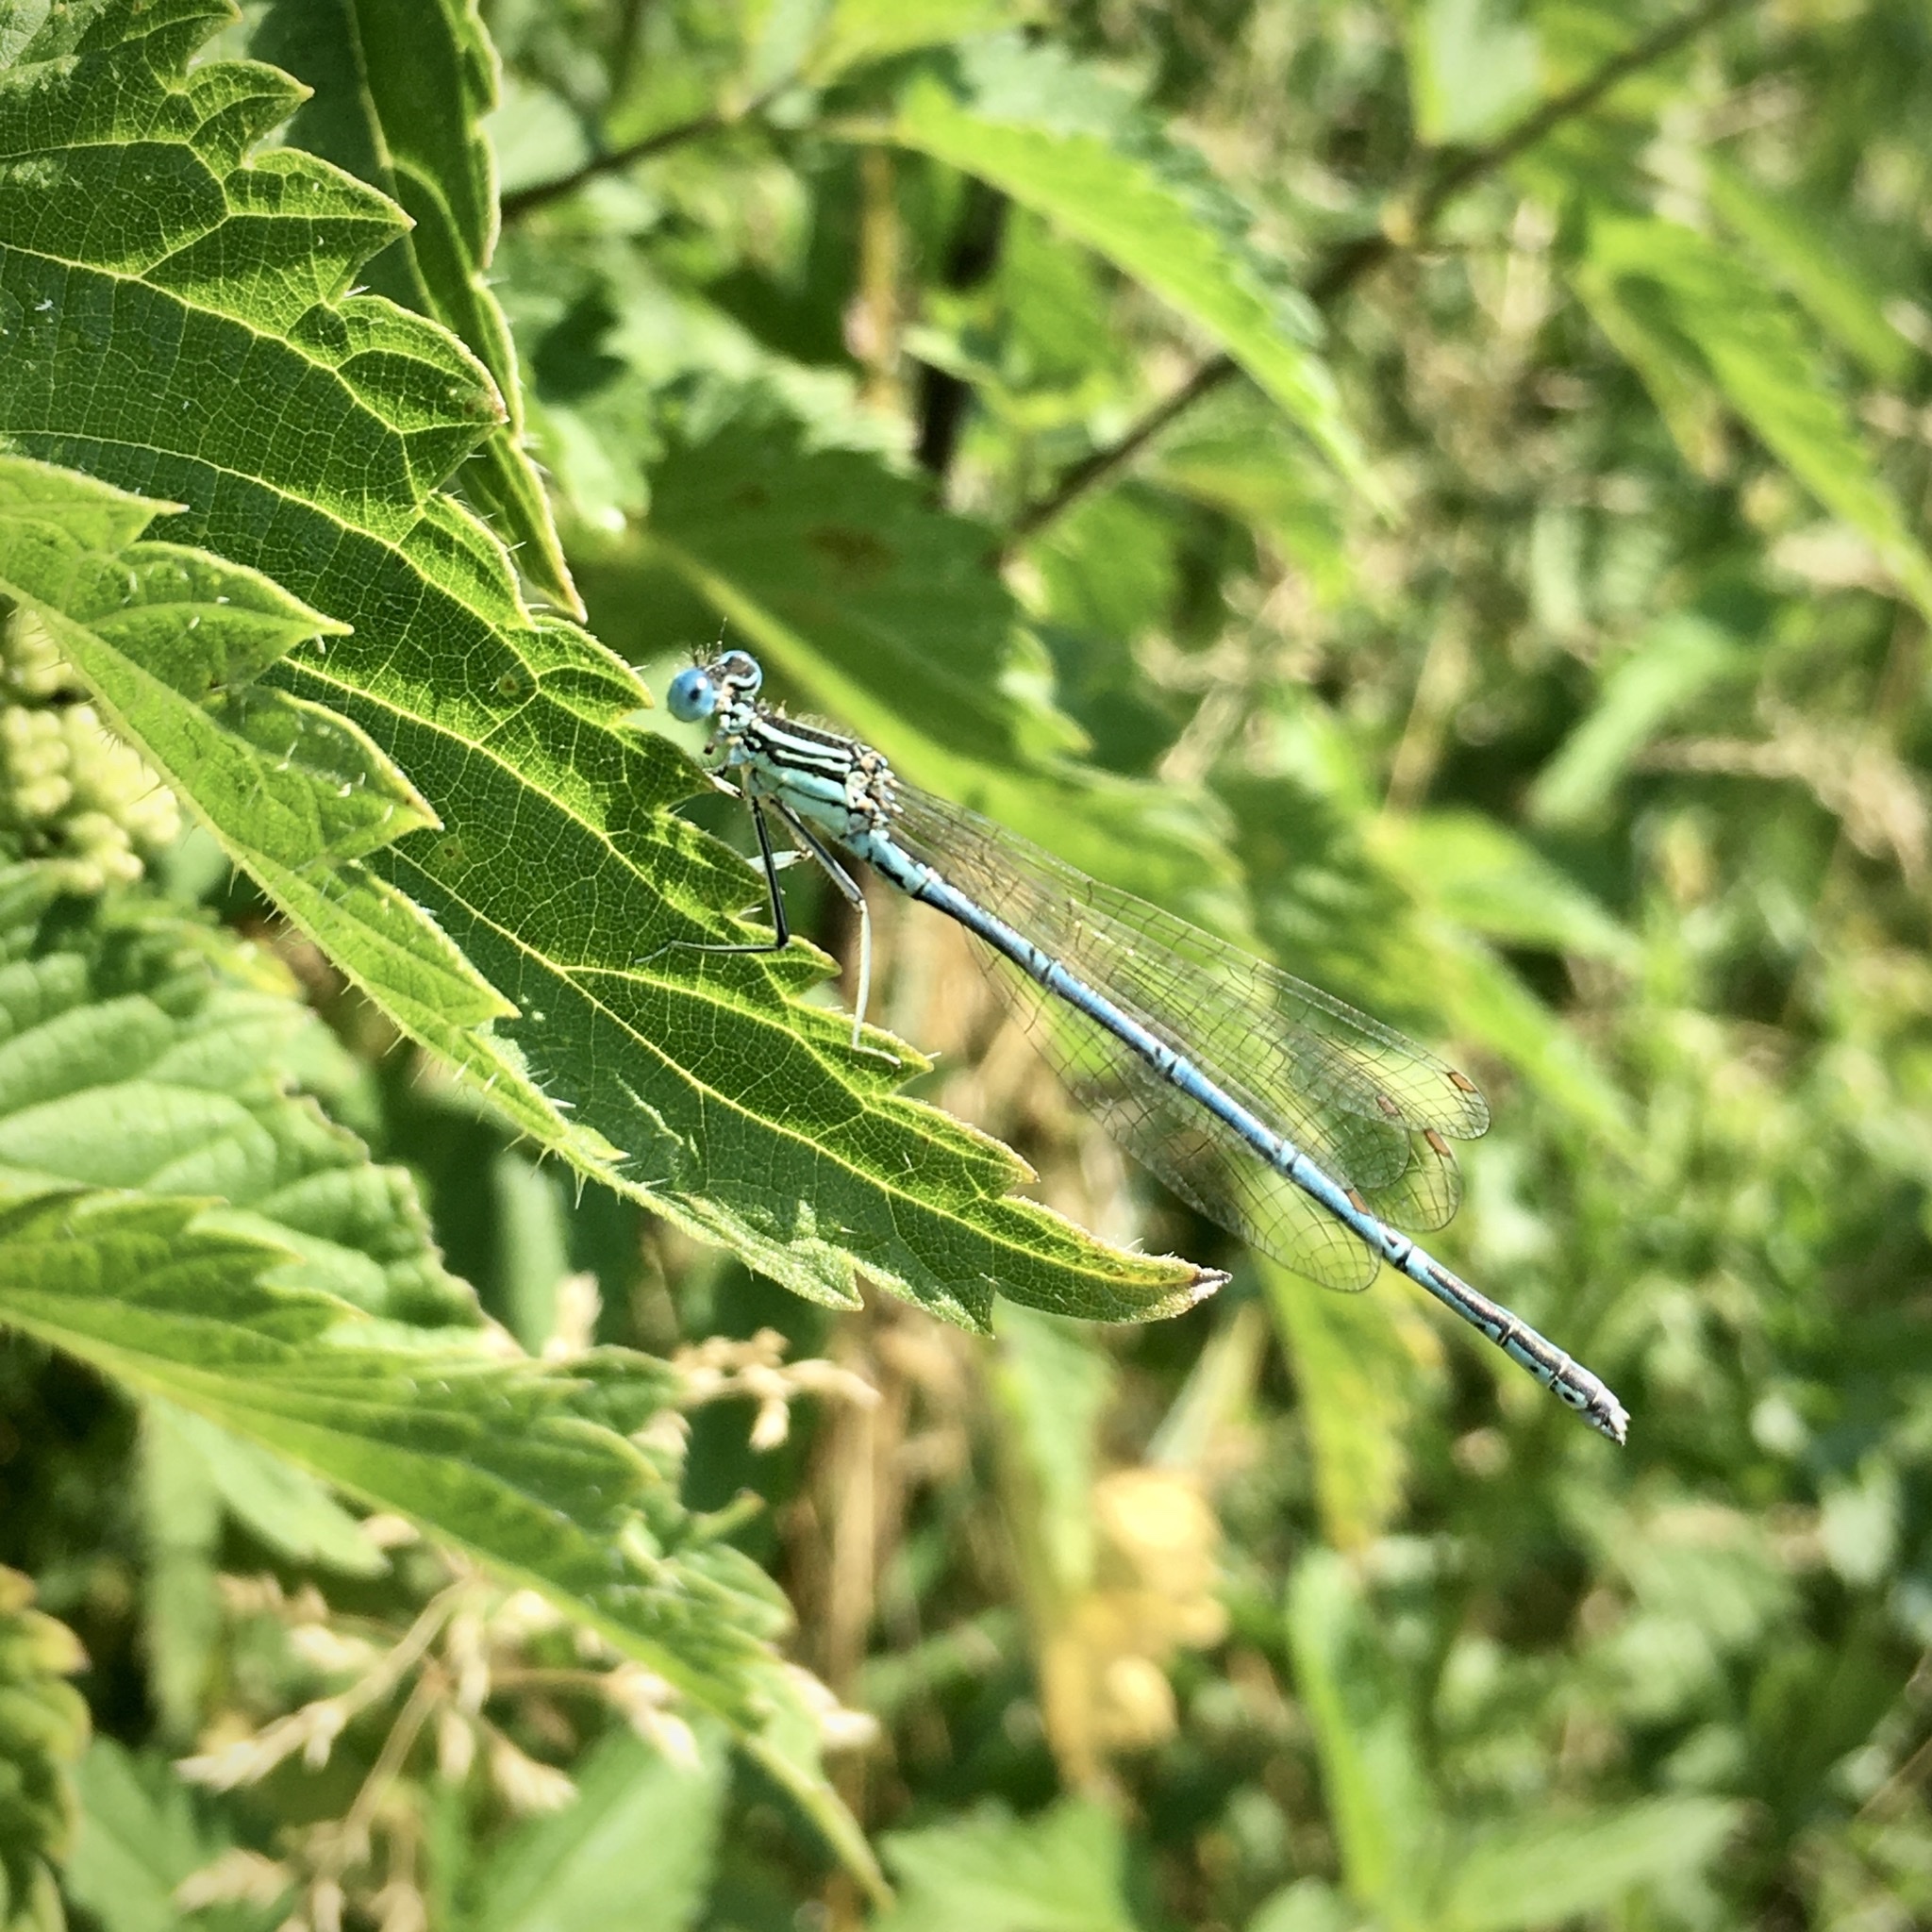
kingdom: Animalia
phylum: Arthropoda
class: Insecta
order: Odonata
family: Platycnemididae
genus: Platycnemis
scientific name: Platycnemis pennipes
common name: White-legged damselfly
